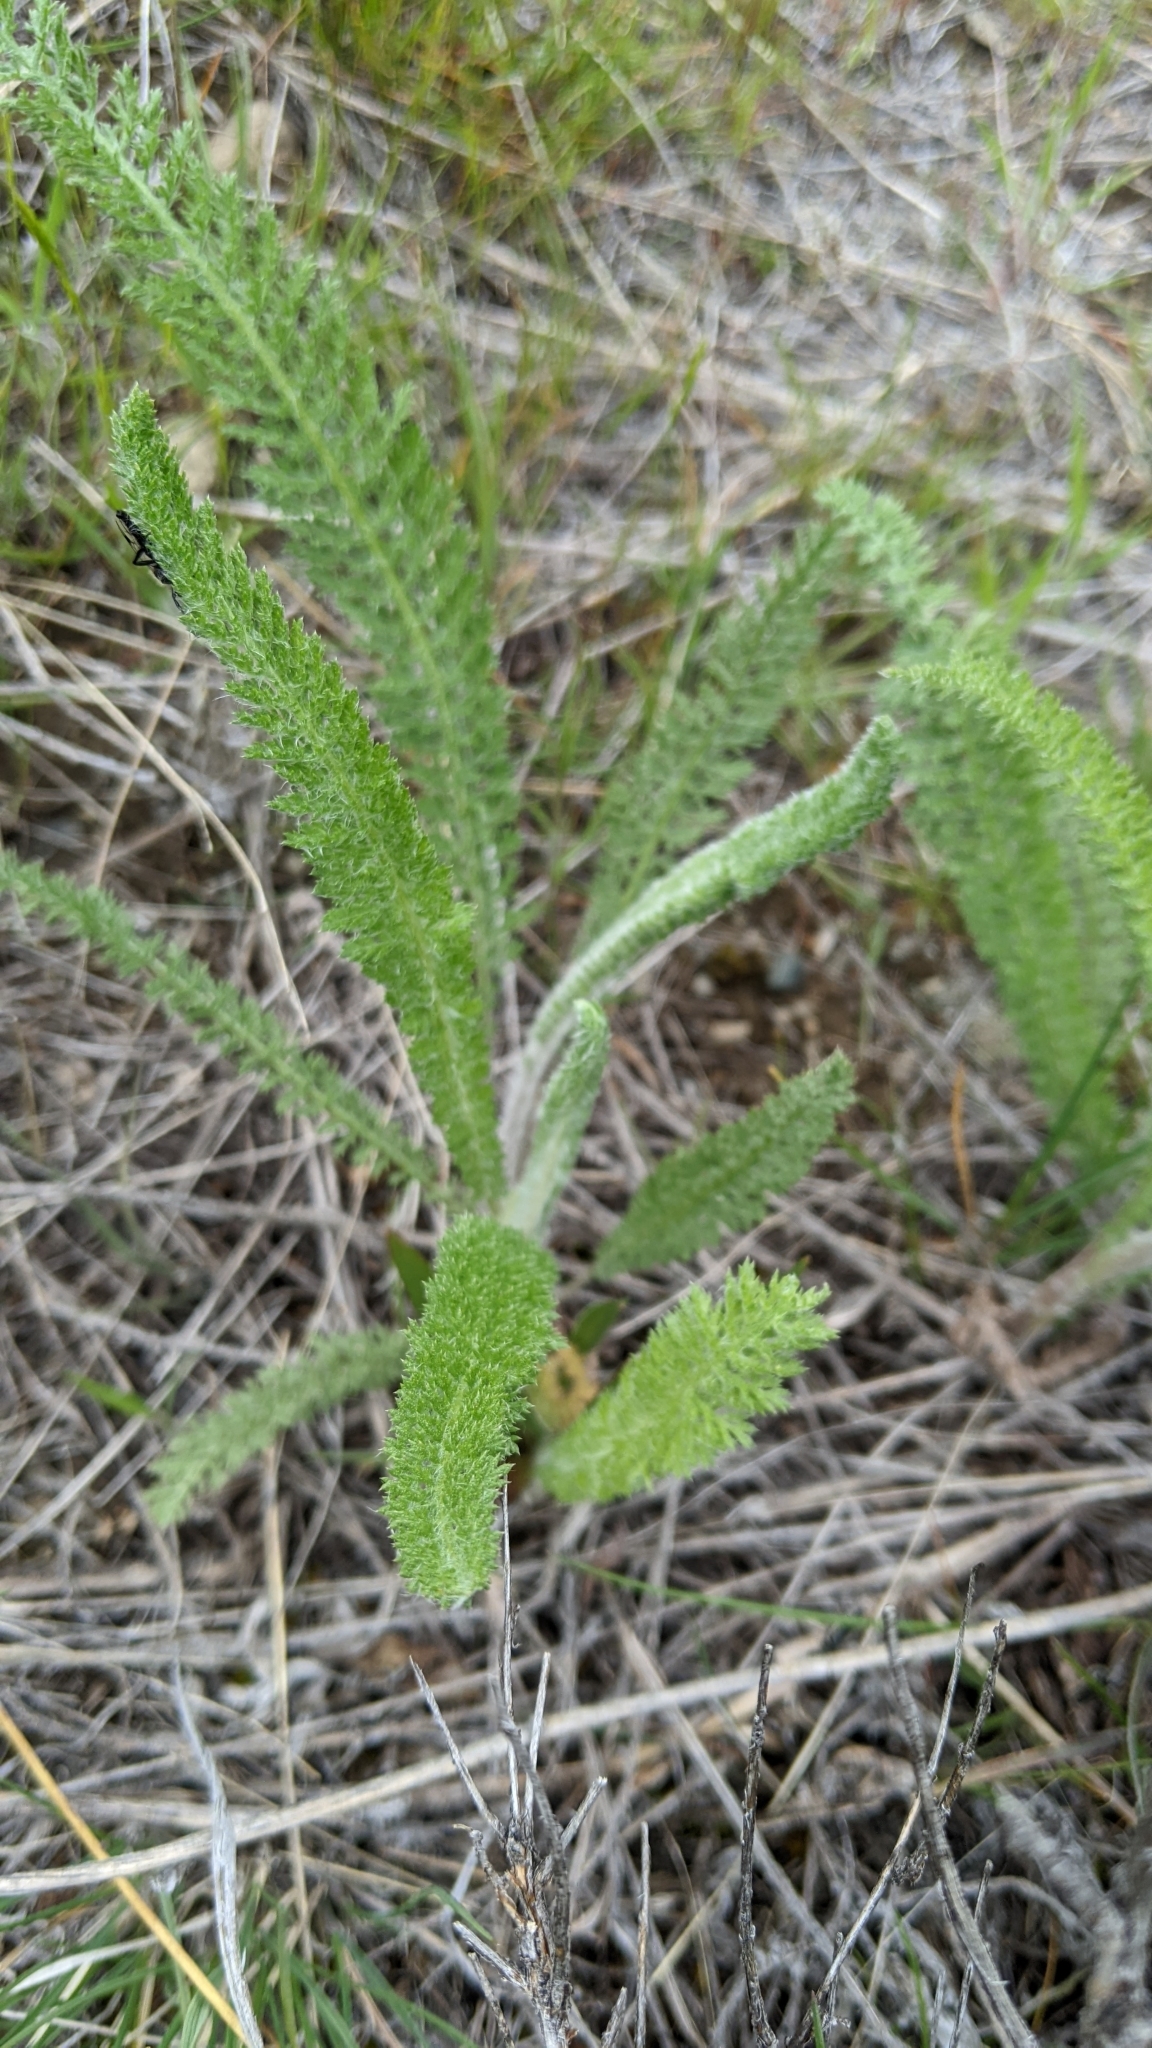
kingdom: Plantae
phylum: Tracheophyta
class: Magnoliopsida
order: Asterales
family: Asteraceae
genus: Achillea
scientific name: Achillea millefolium
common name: Yarrow
